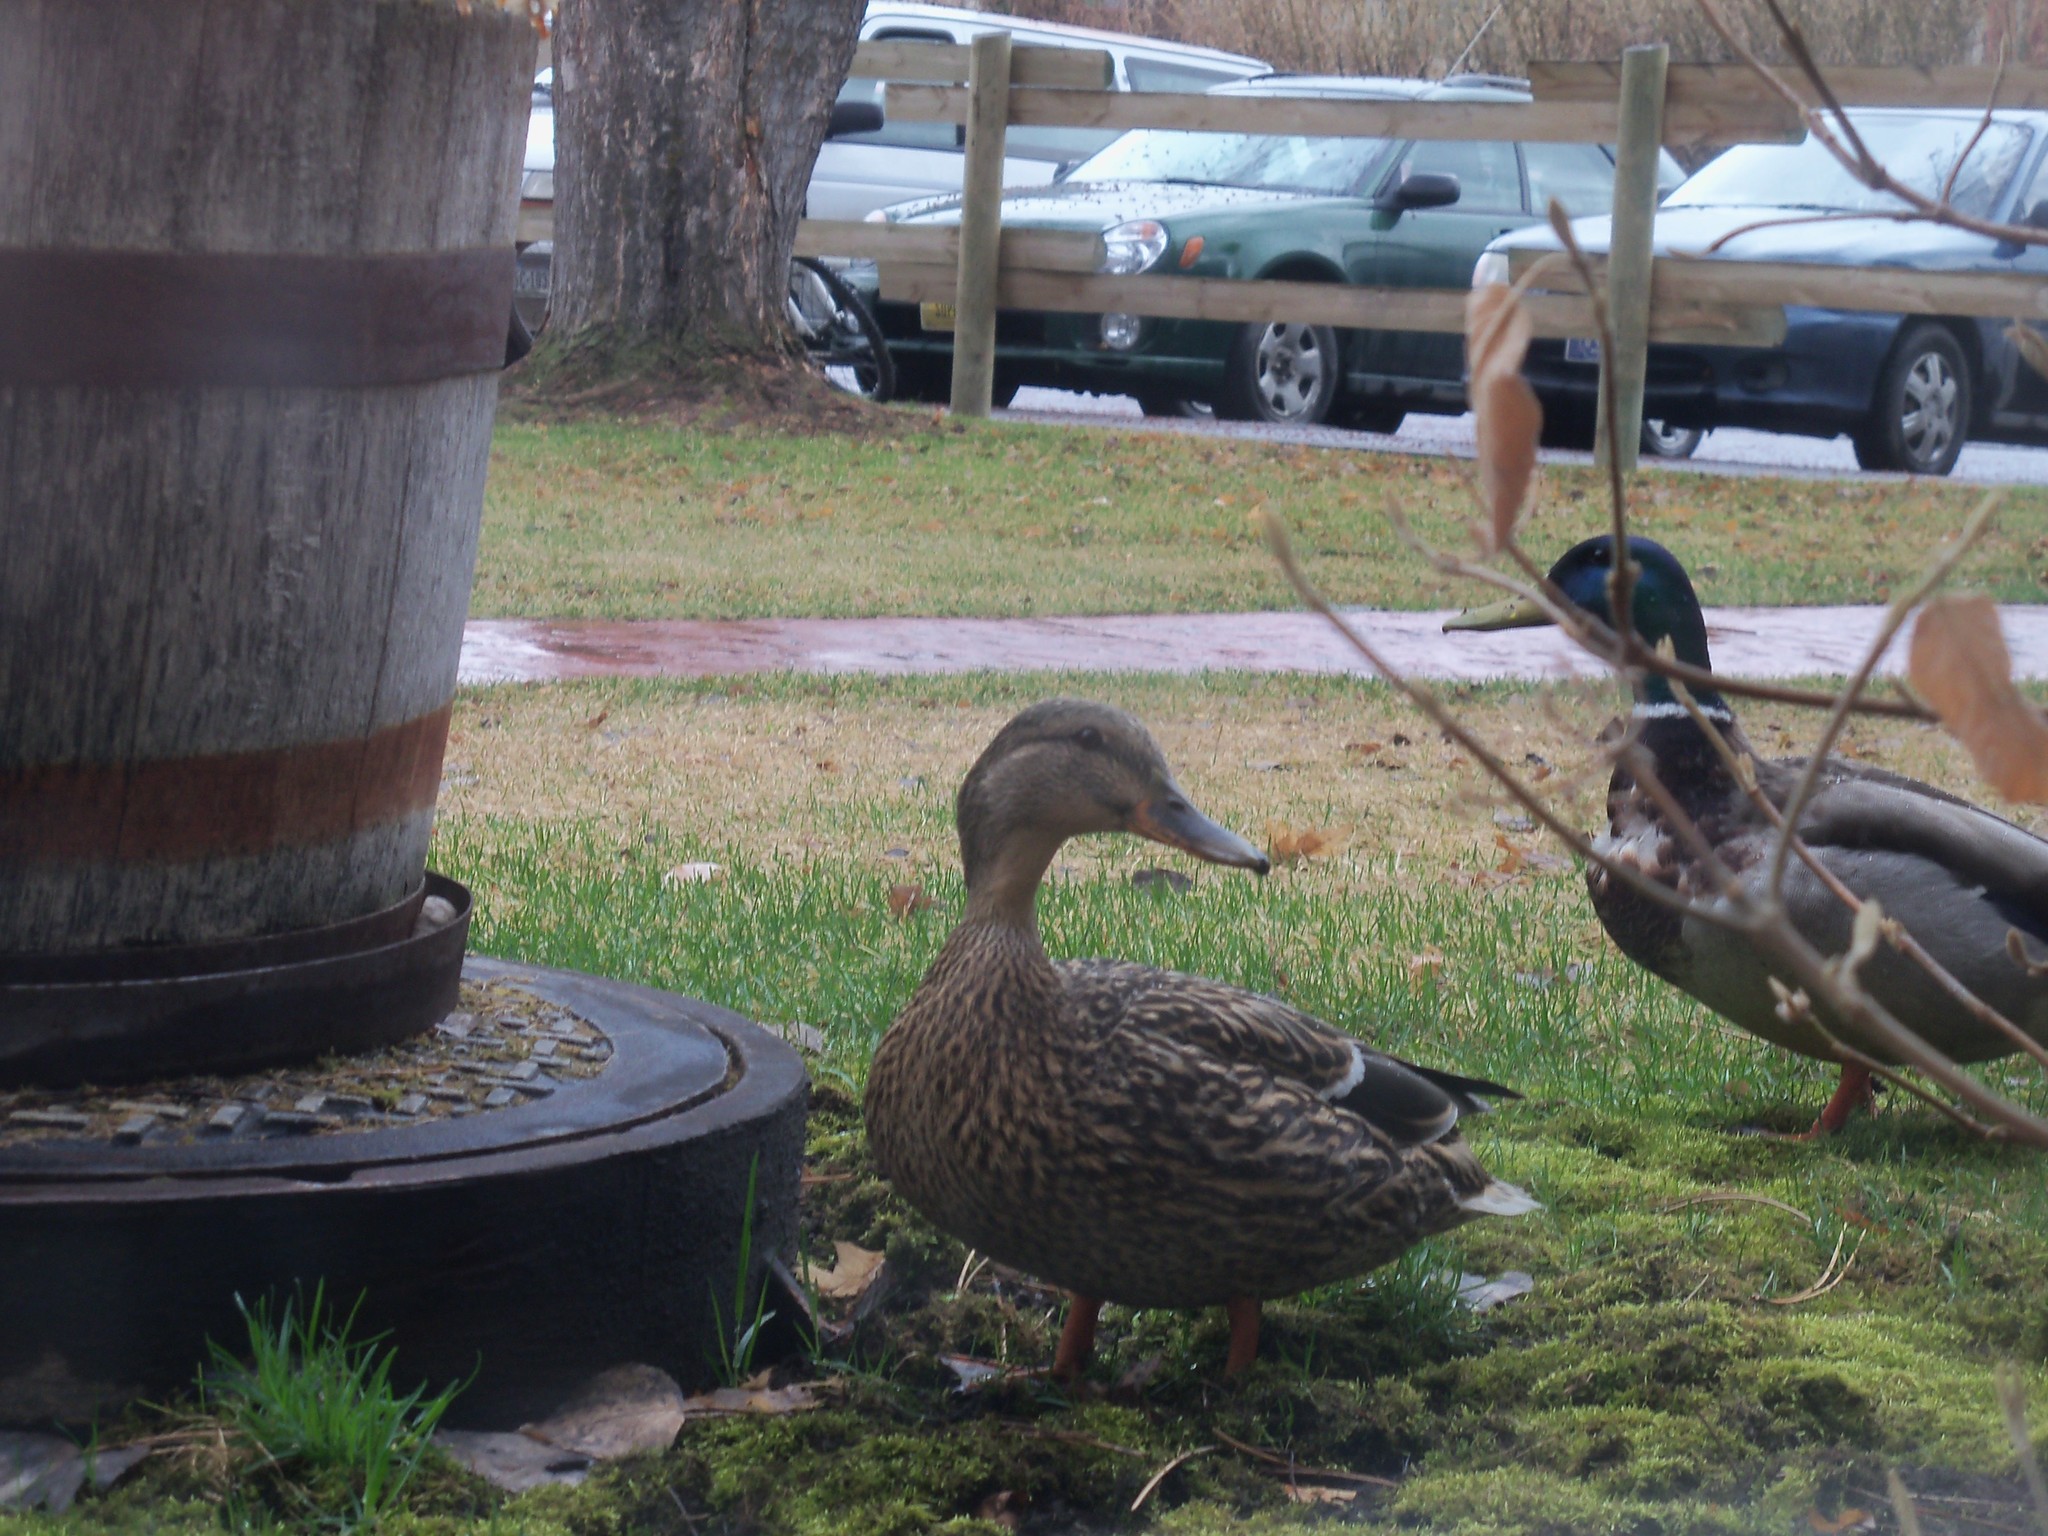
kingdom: Animalia
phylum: Chordata
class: Aves
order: Anseriformes
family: Anatidae
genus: Anas
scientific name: Anas platyrhynchos
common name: Mallard
